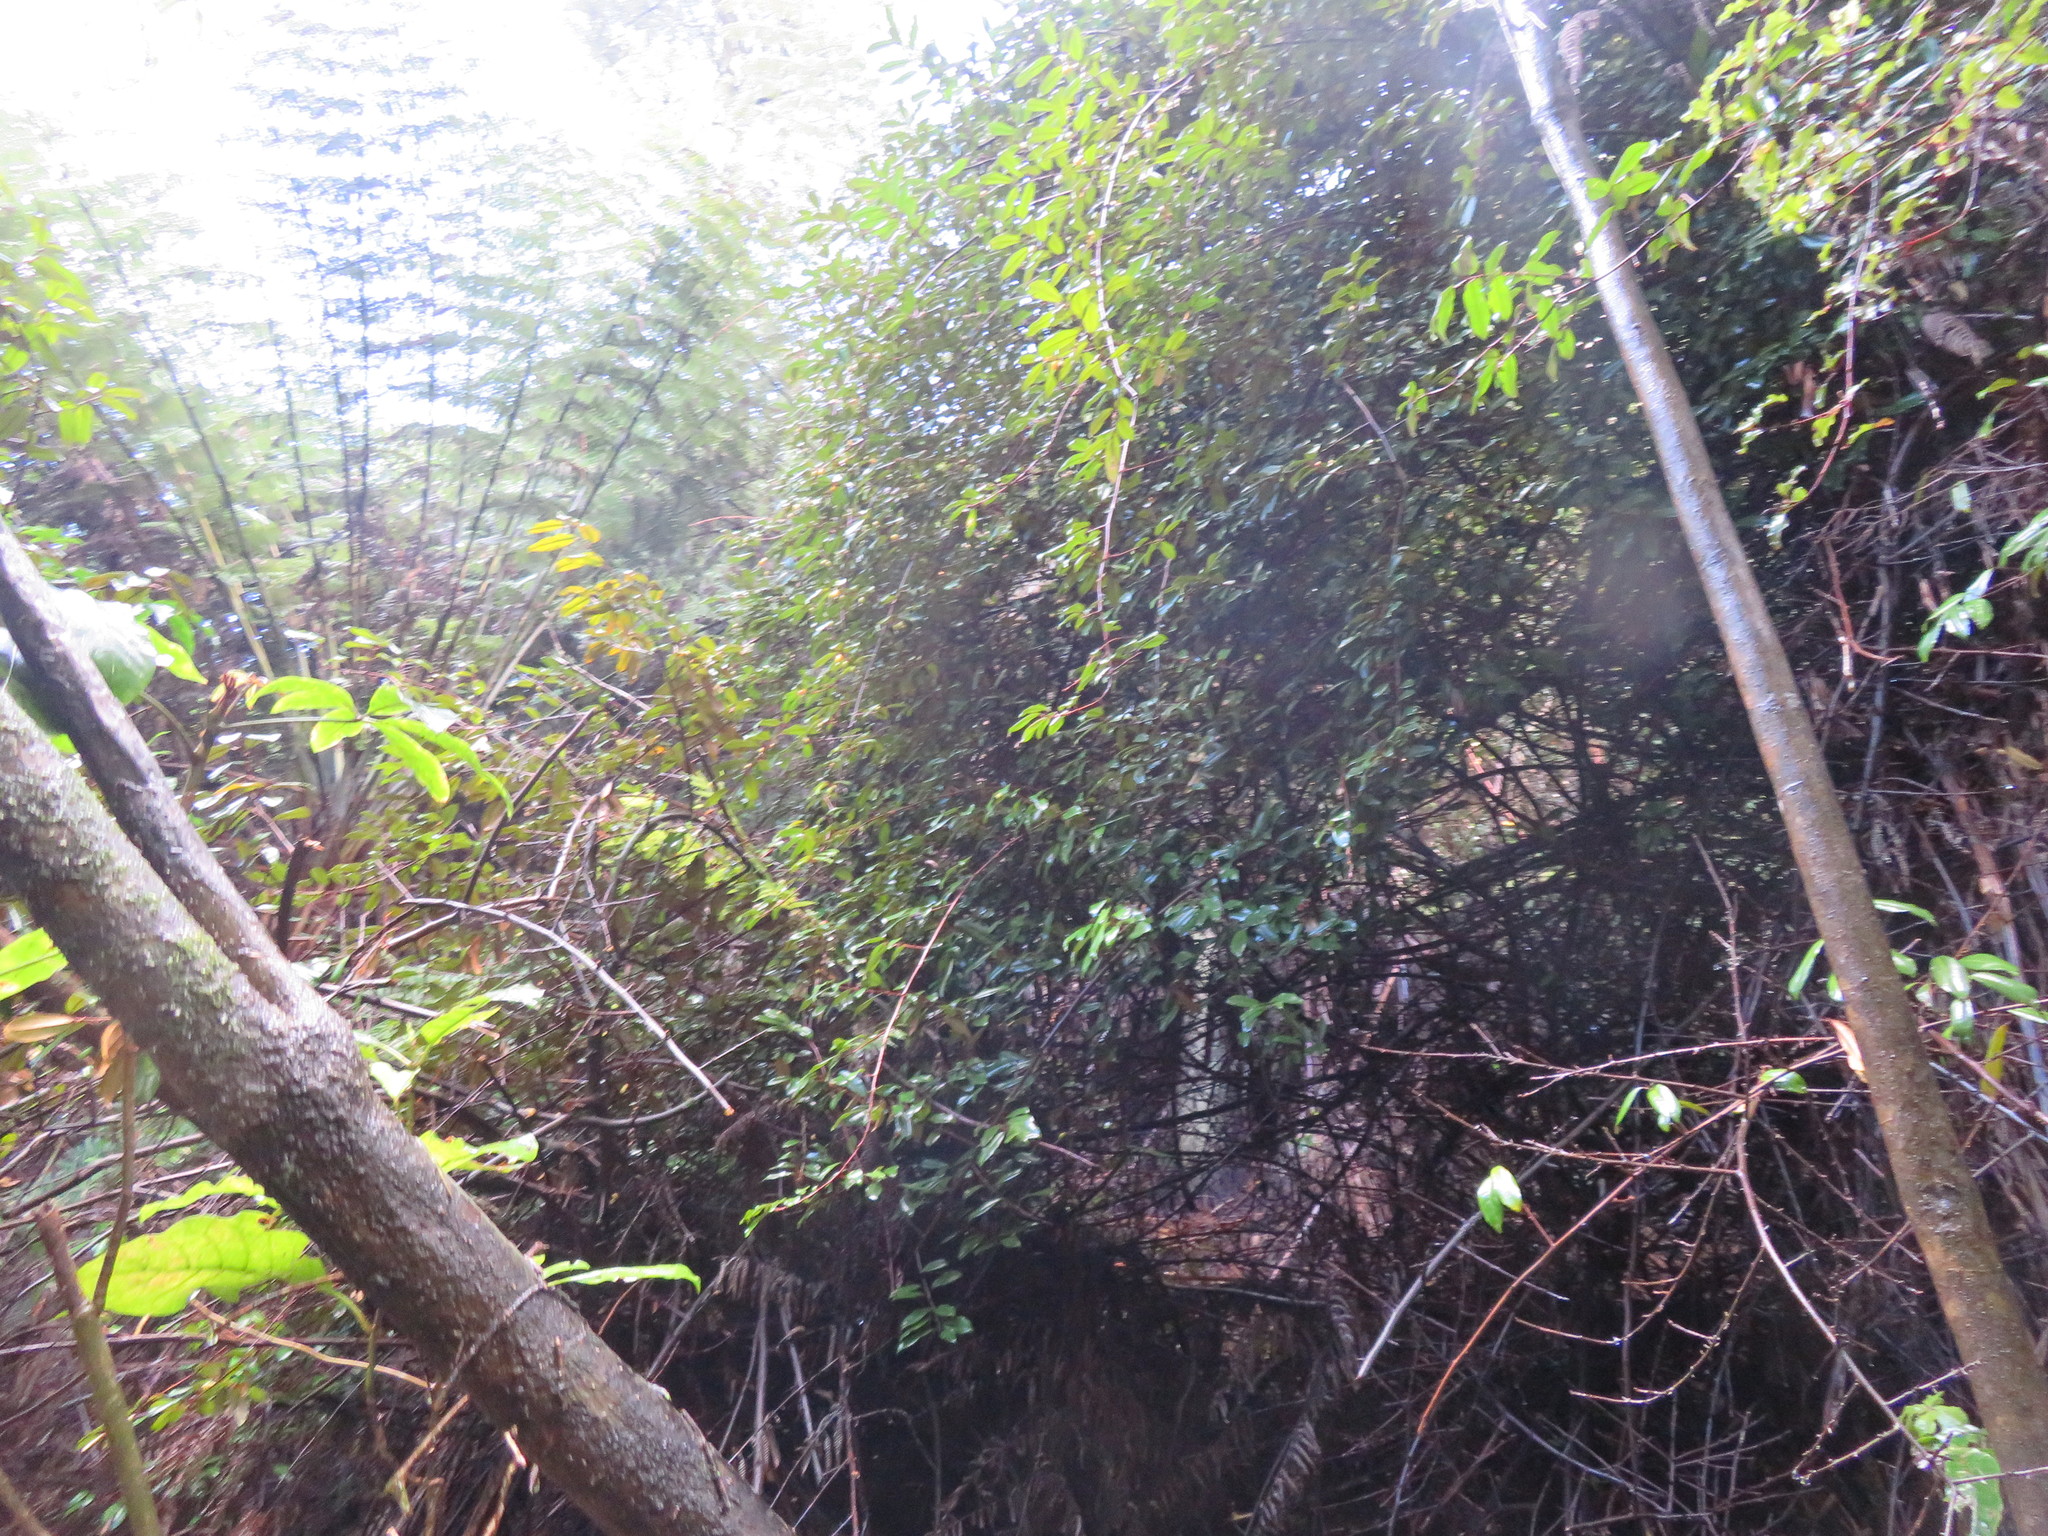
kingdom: Plantae
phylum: Tracheophyta
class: Magnoliopsida
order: Apiales
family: Araliaceae
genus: Schefflera
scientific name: Schefflera digitata
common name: Pate
